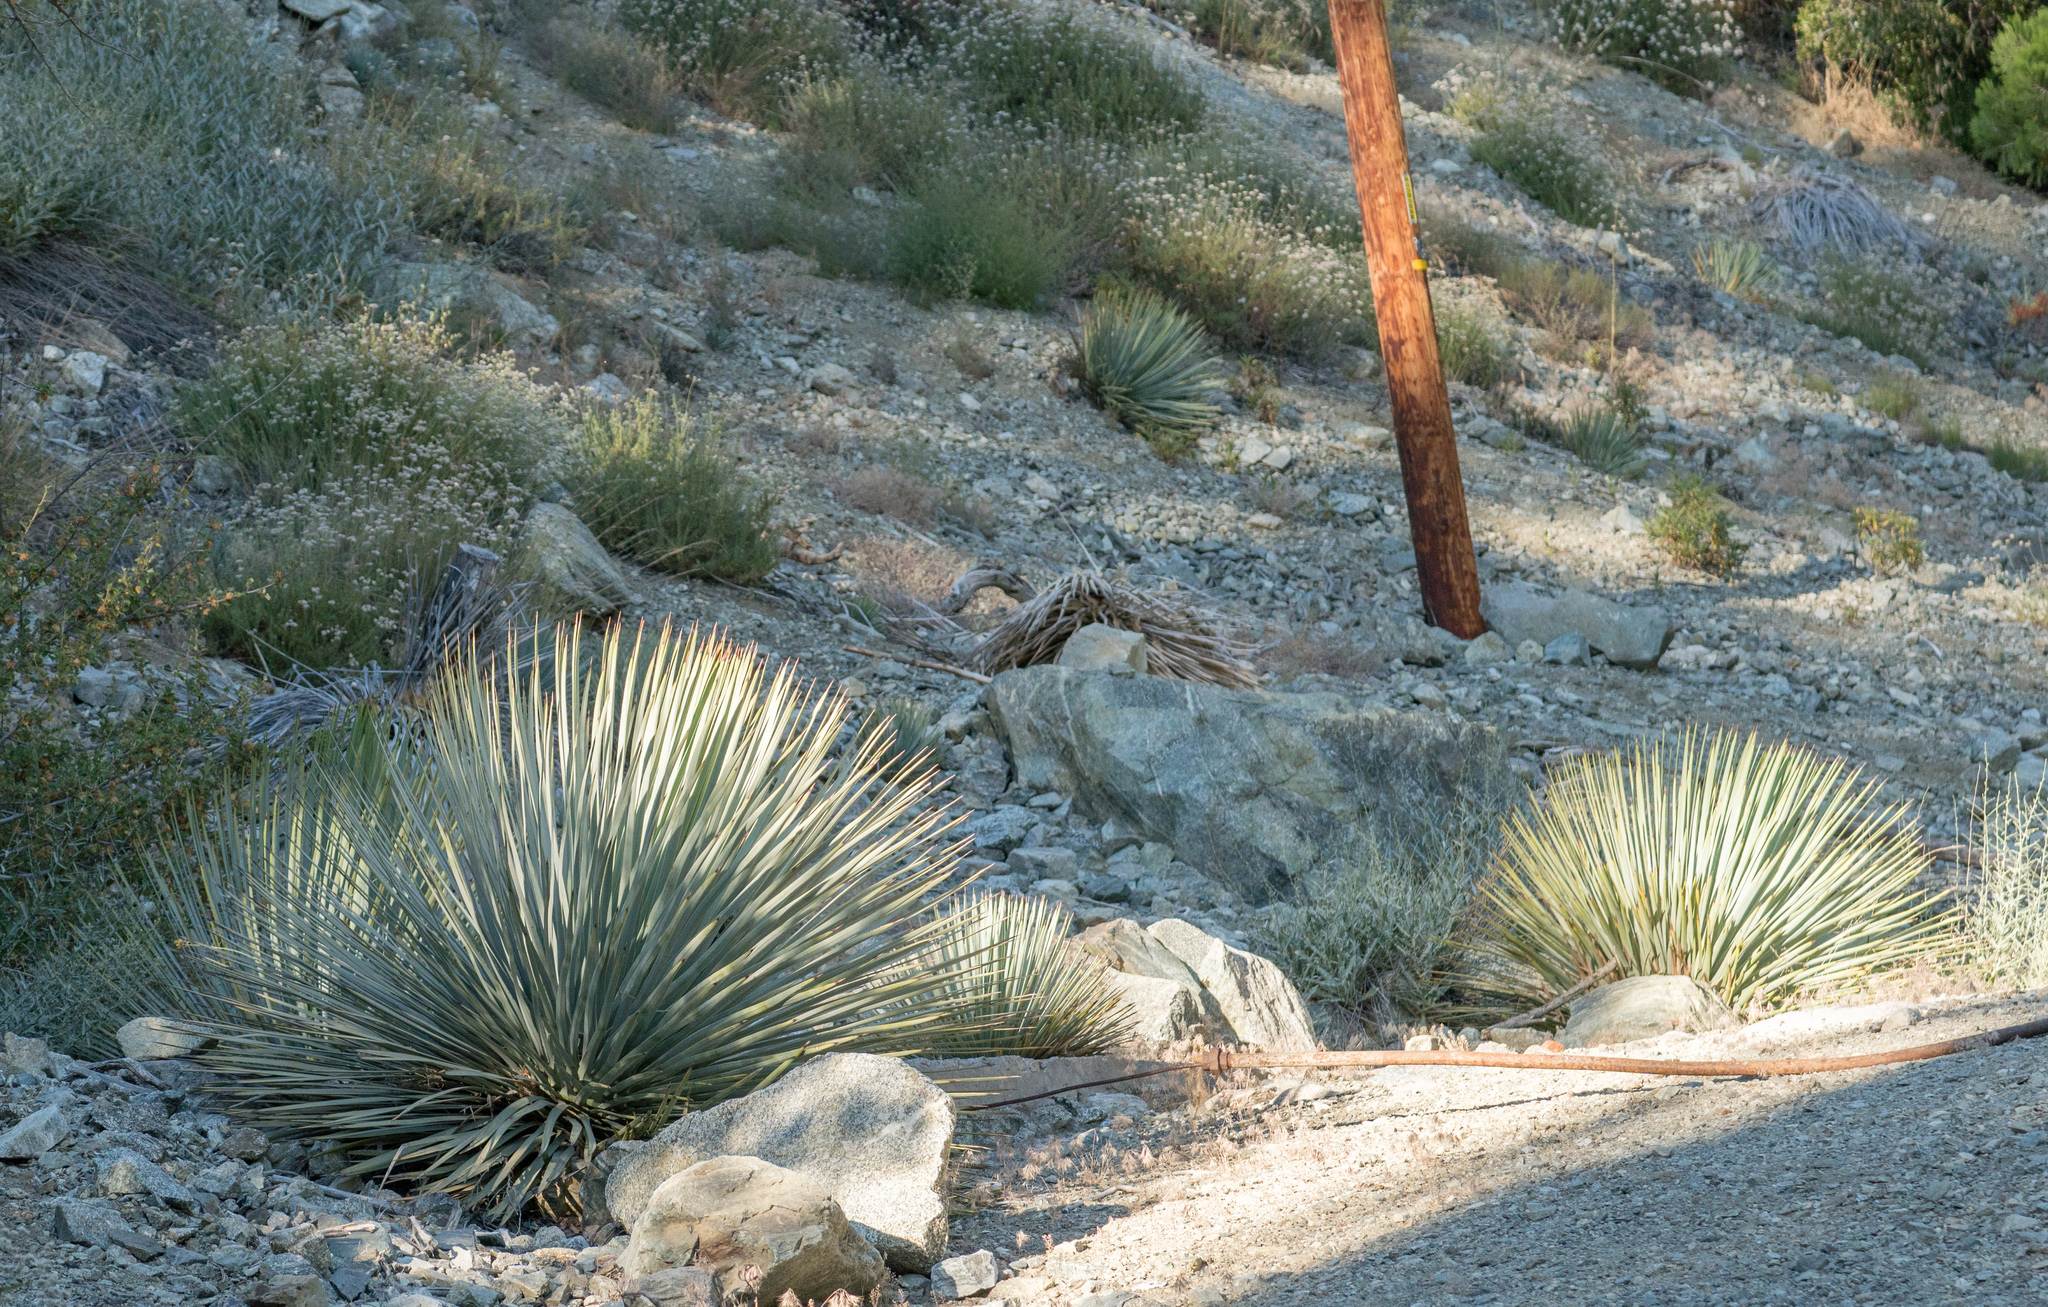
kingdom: Plantae
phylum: Tracheophyta
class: Liliopsida
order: Asparagales
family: Asparagaceae
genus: Hesperoyucca
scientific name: Hesperoyucca whipplei
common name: Our lord's-candle
